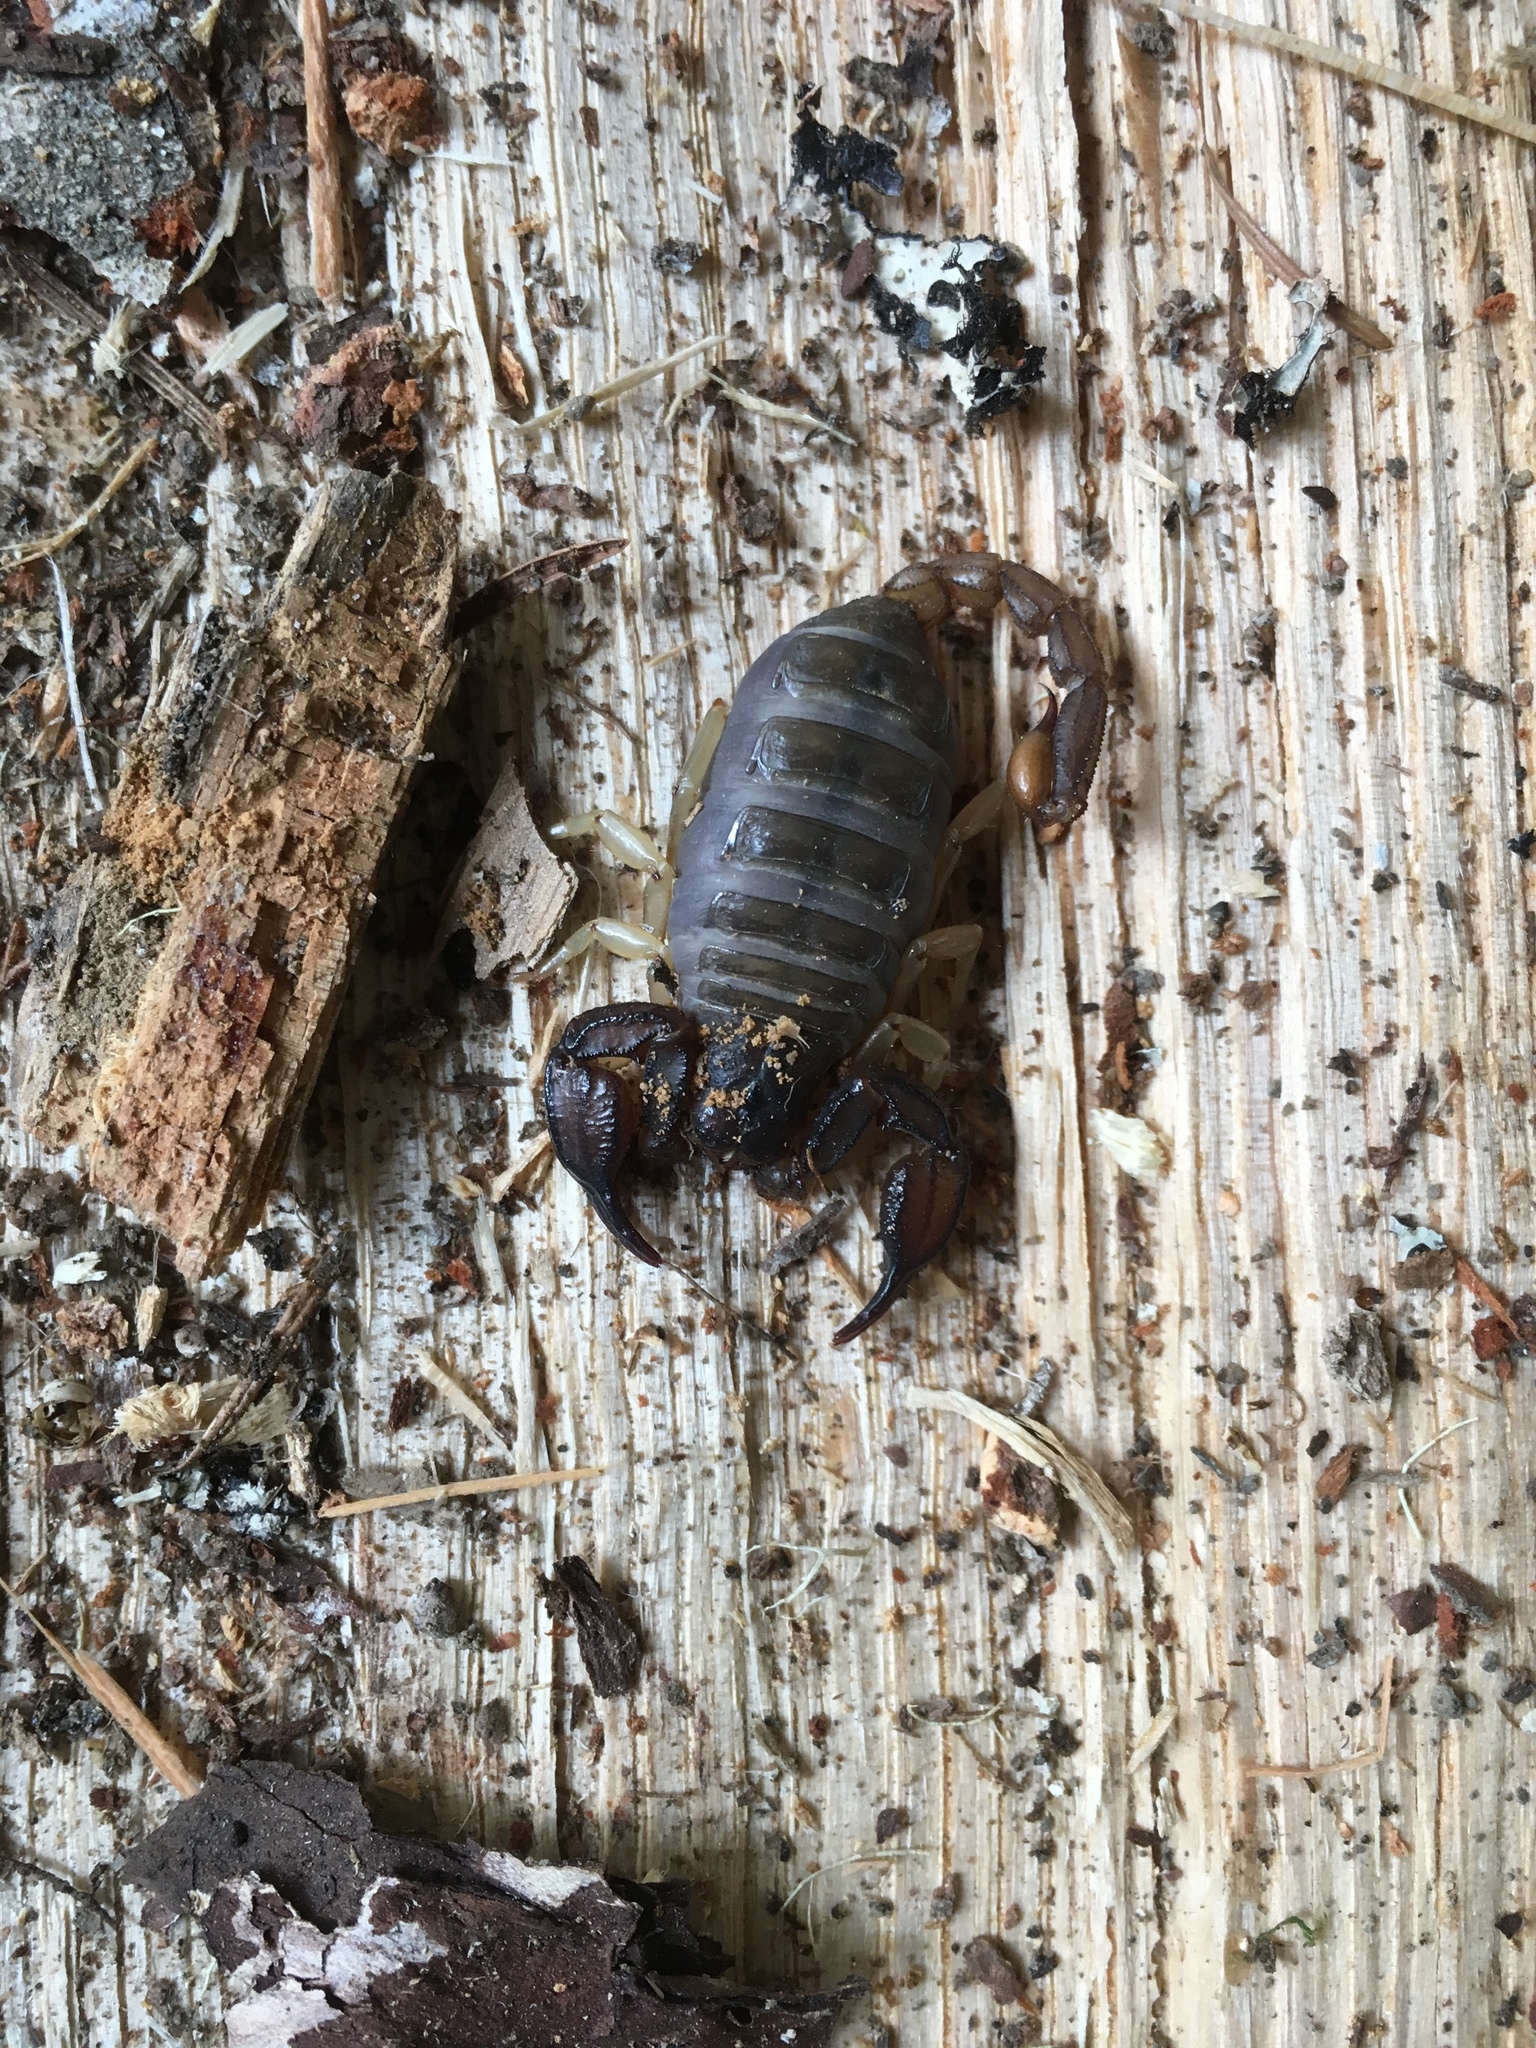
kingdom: Animalia
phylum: Arthropoda
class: Arachnida
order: Scorpiones
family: Chactidae
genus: Uroctonus
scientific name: Uroctonus mordax
